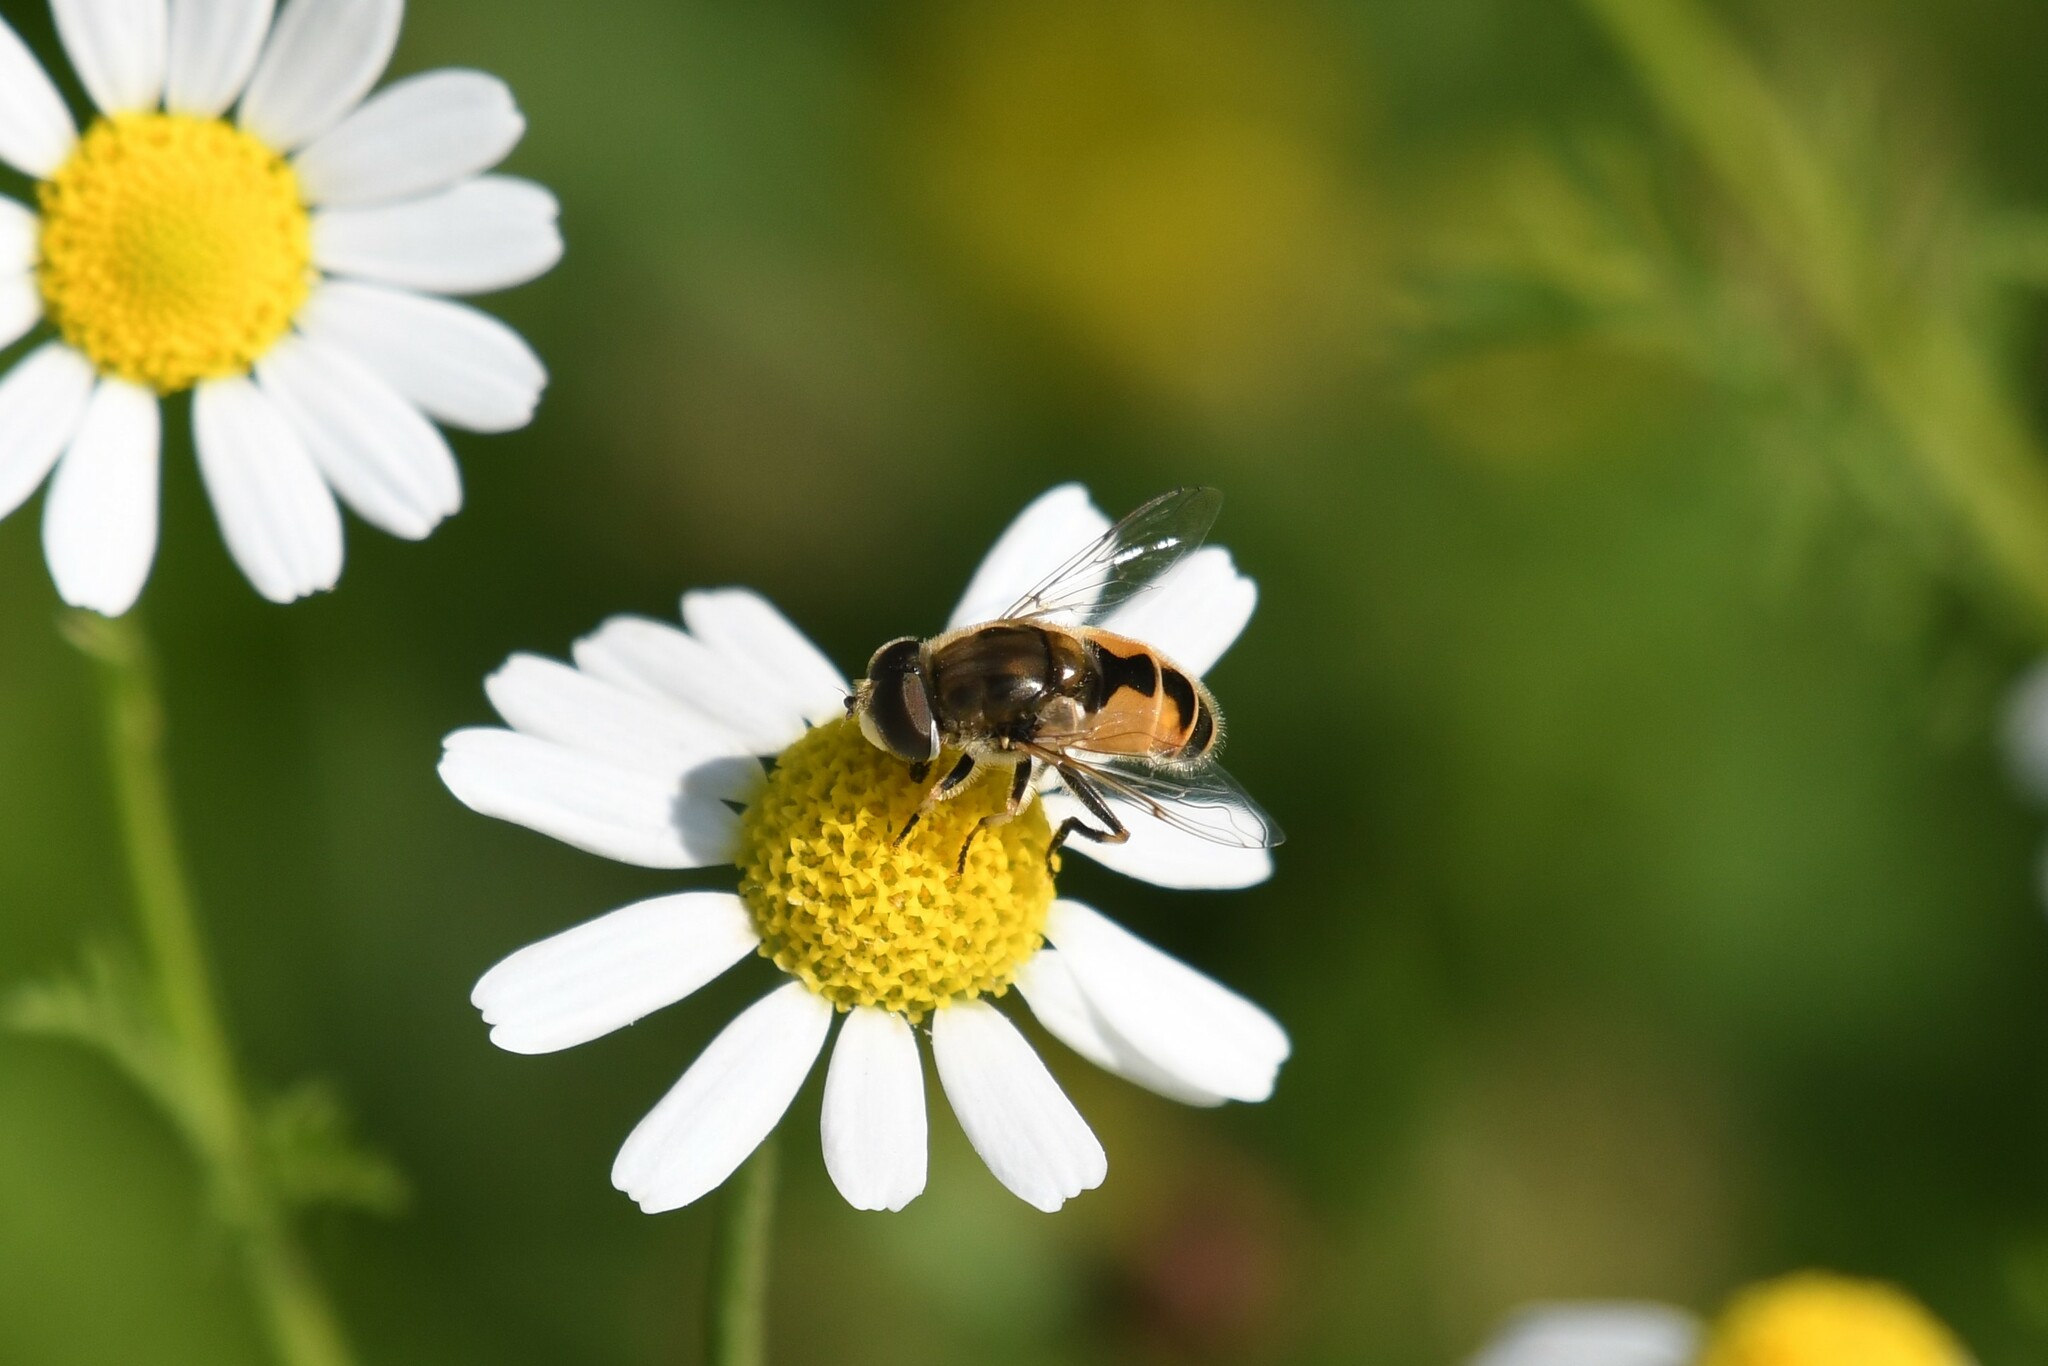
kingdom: Animalia
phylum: Arthropoda
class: Insecta
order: Diptera
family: Syrphidae
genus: Eristalis
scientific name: Eristalis arbustorum
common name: Hover fly
